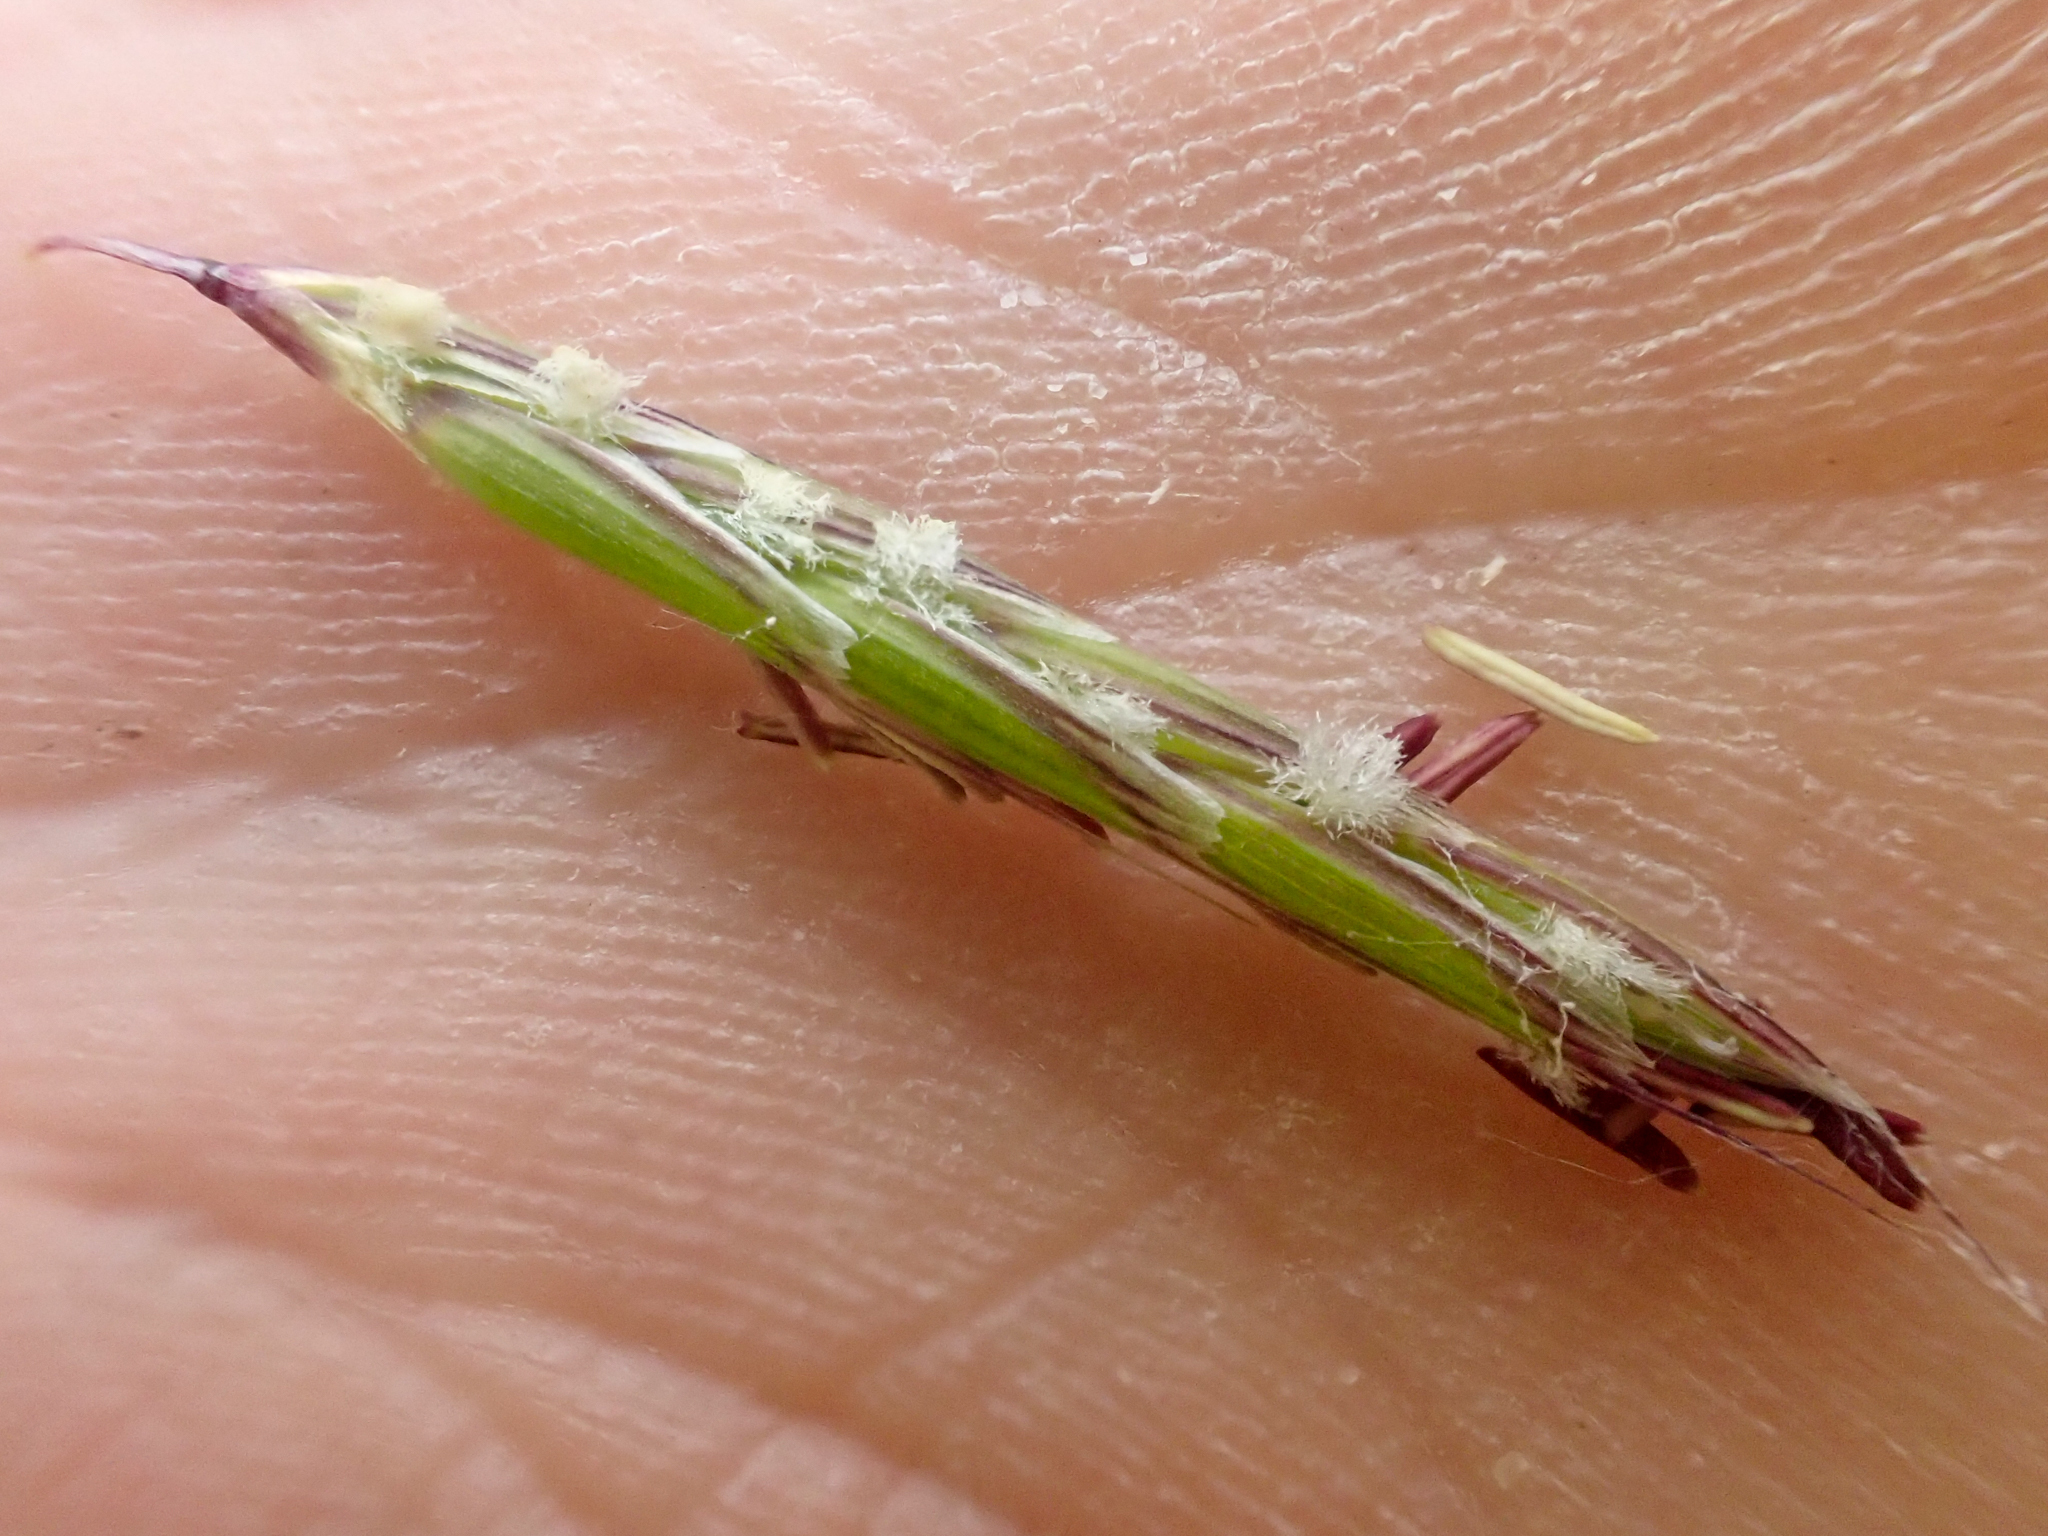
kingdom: Plantae
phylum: Tracheophyta
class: Liliopsida
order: Poales
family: Poaceae
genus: Pleuropogon
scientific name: Pleuropogon refractus
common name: Nodding false semaphoregrass
